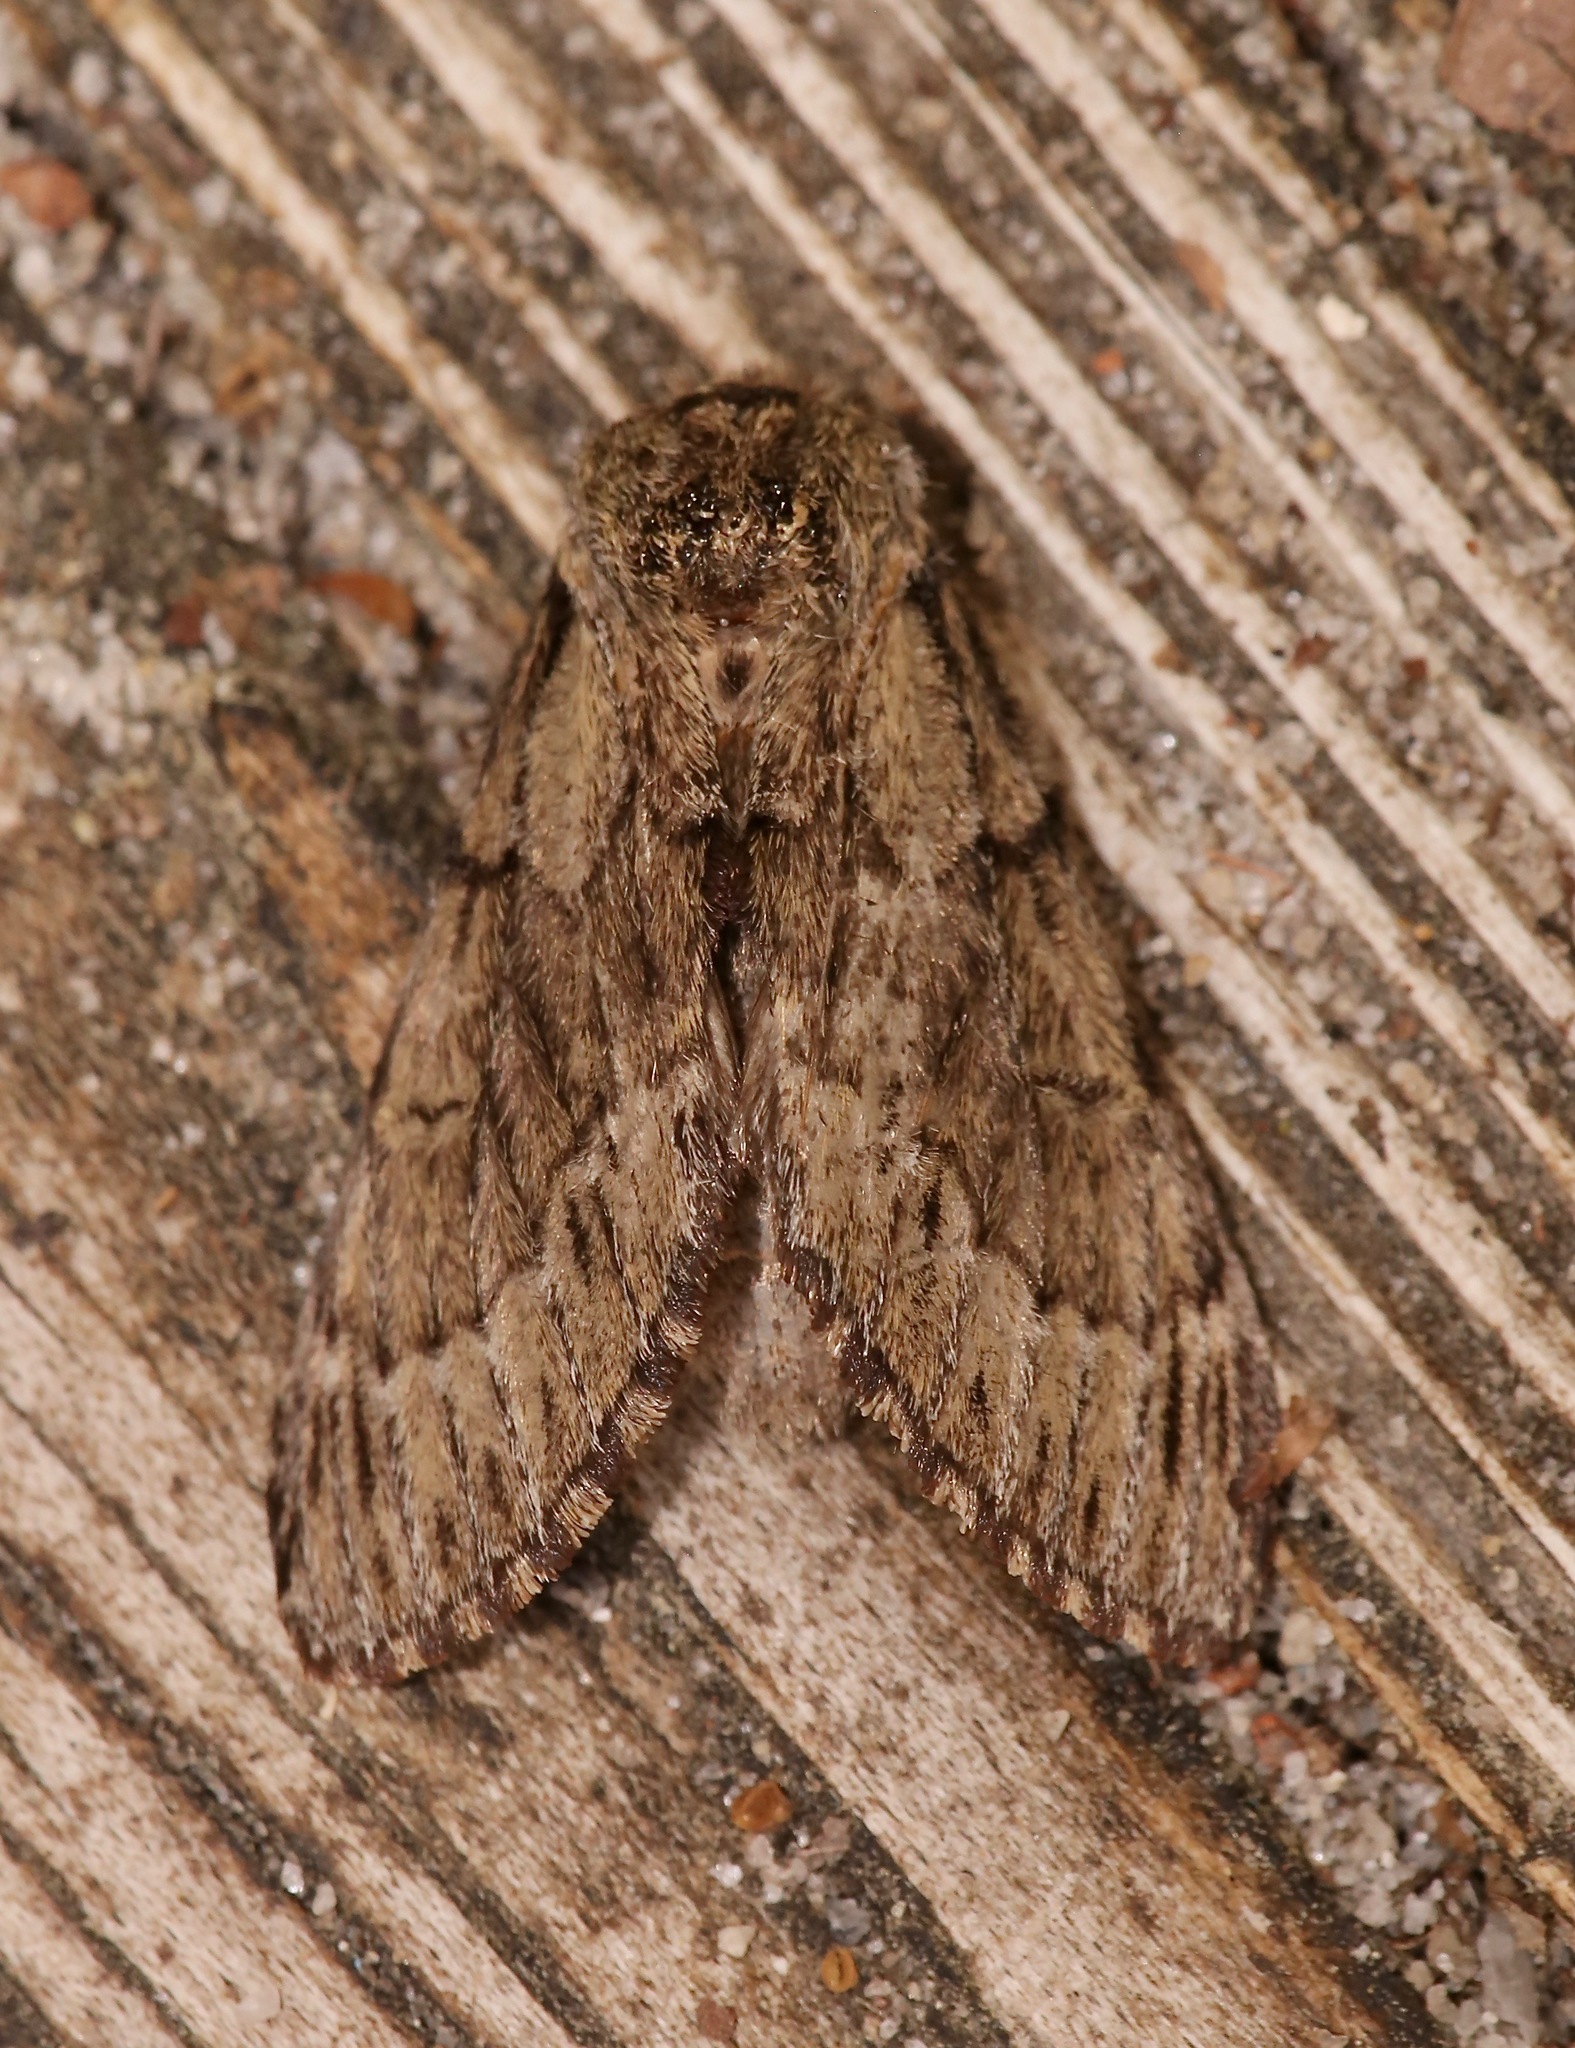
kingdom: Animalia
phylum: Arthropoda
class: Insecta
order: Lepidoptera
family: Notodontidae
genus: Paraeschra
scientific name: Paraeschra georgica
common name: Georgian prominent
